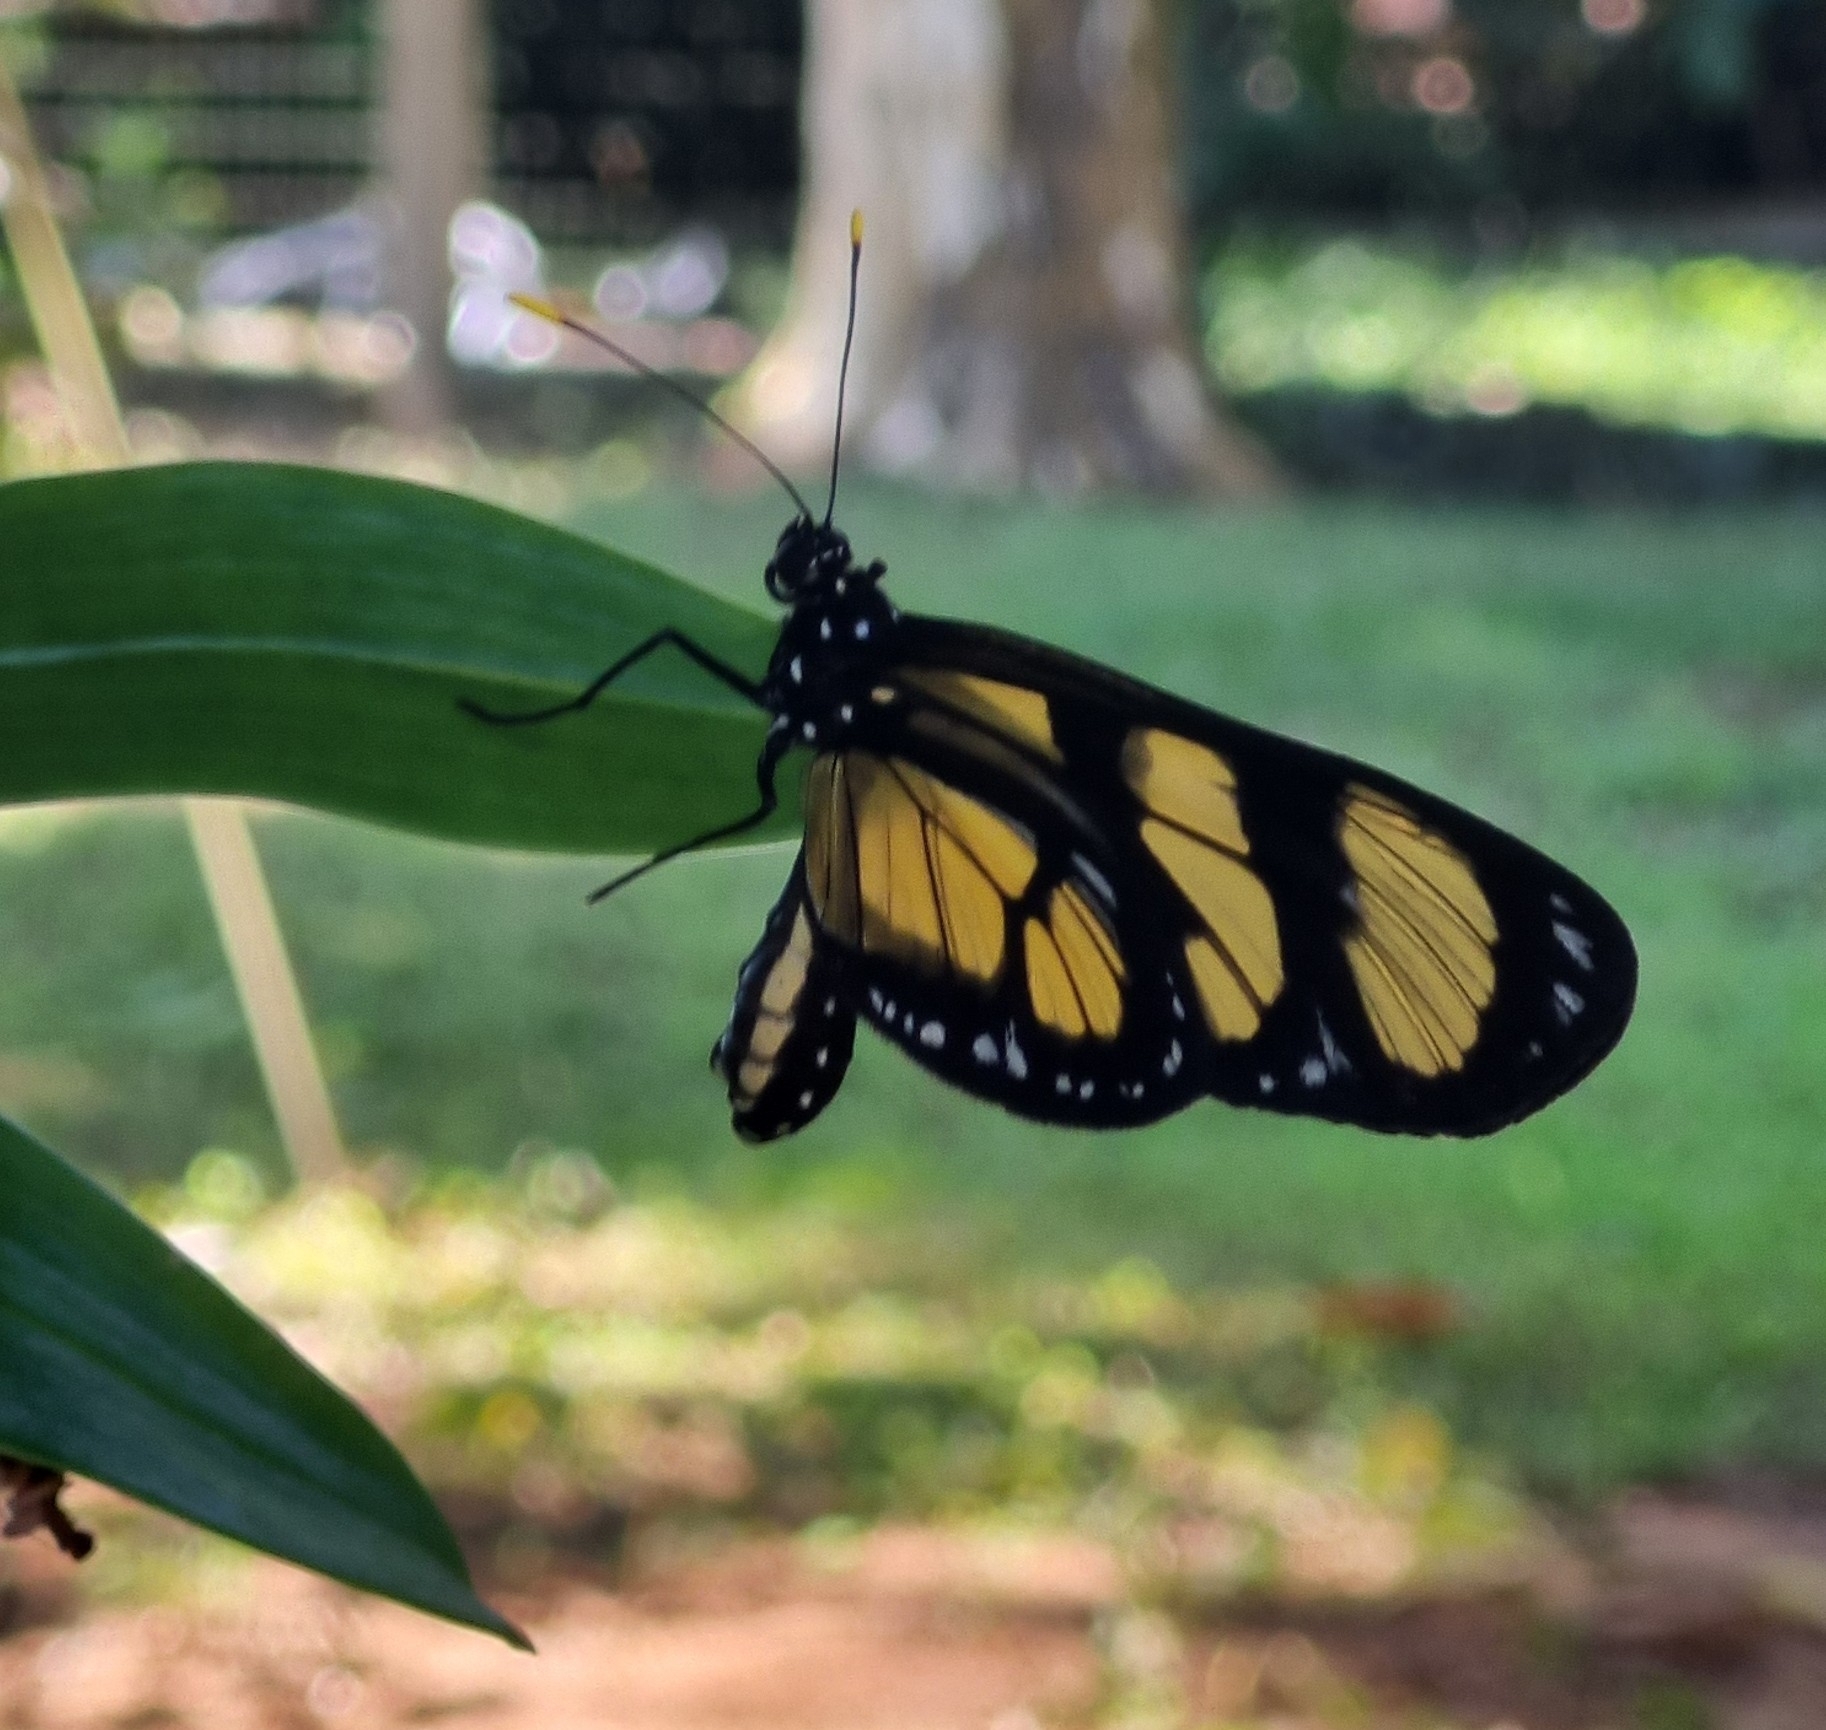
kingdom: Animalia
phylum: Arthropoda
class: Insecta
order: Lepidoptera
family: Nymphalidae
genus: Methona
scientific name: Methona themisto
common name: Themisto amberwing
